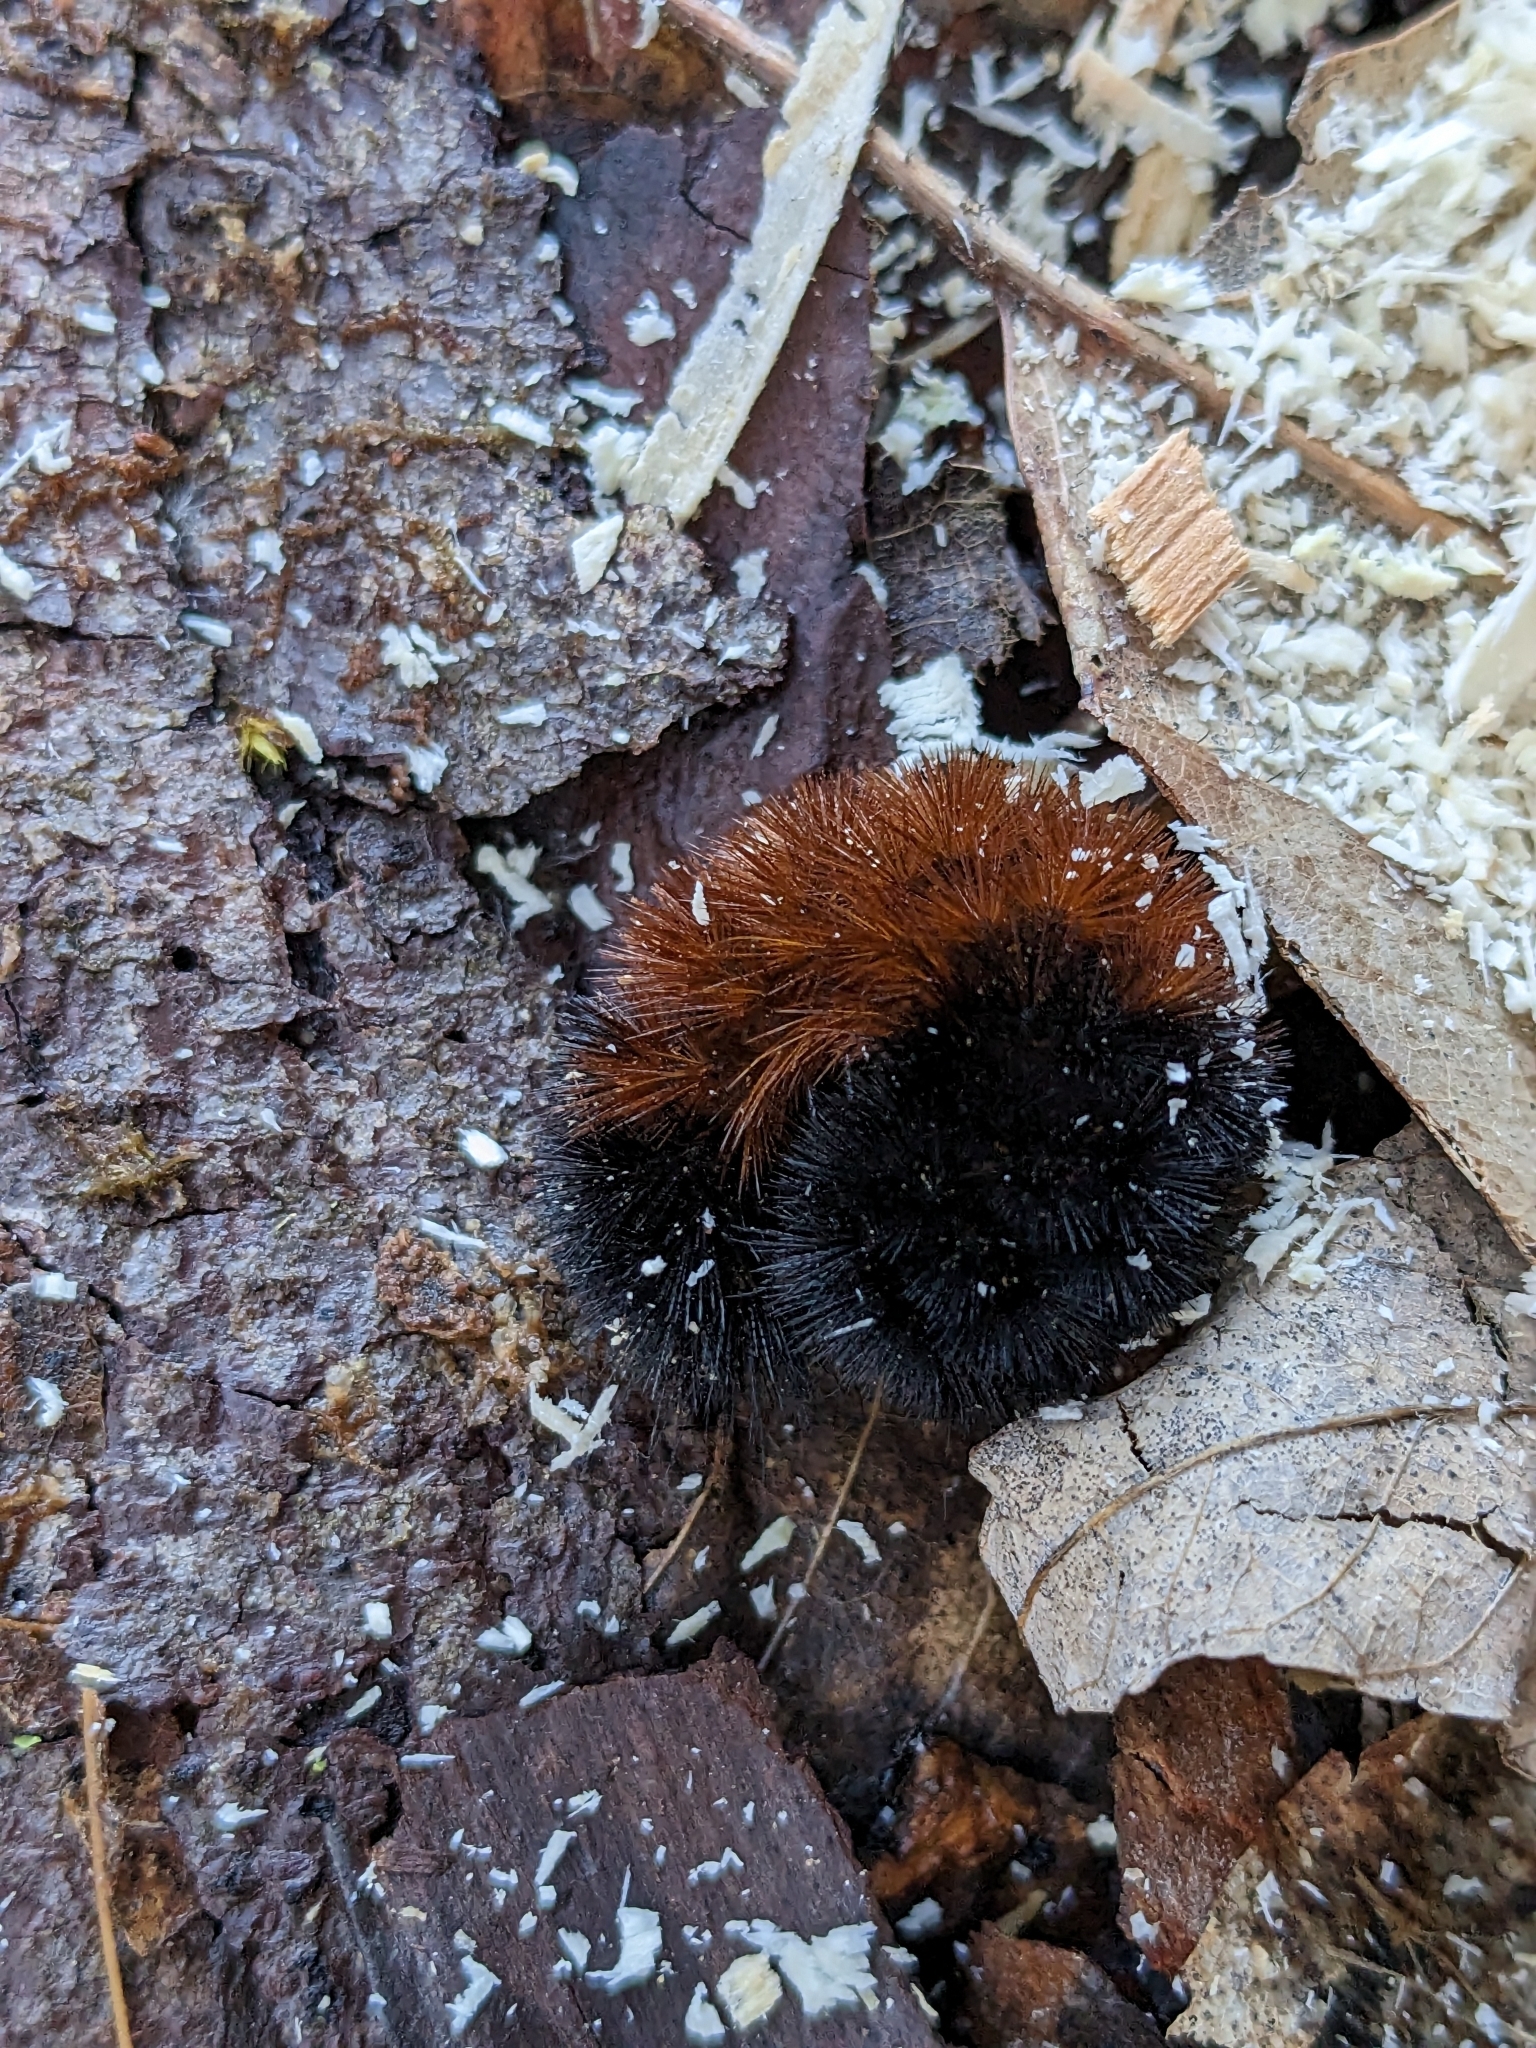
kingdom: Animalia
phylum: Arthropoda
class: Insecta
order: Lepidoptera
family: Erebidae
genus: Pyrrharctia
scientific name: Pyrrharctia isabella
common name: Isabella tiger moth
